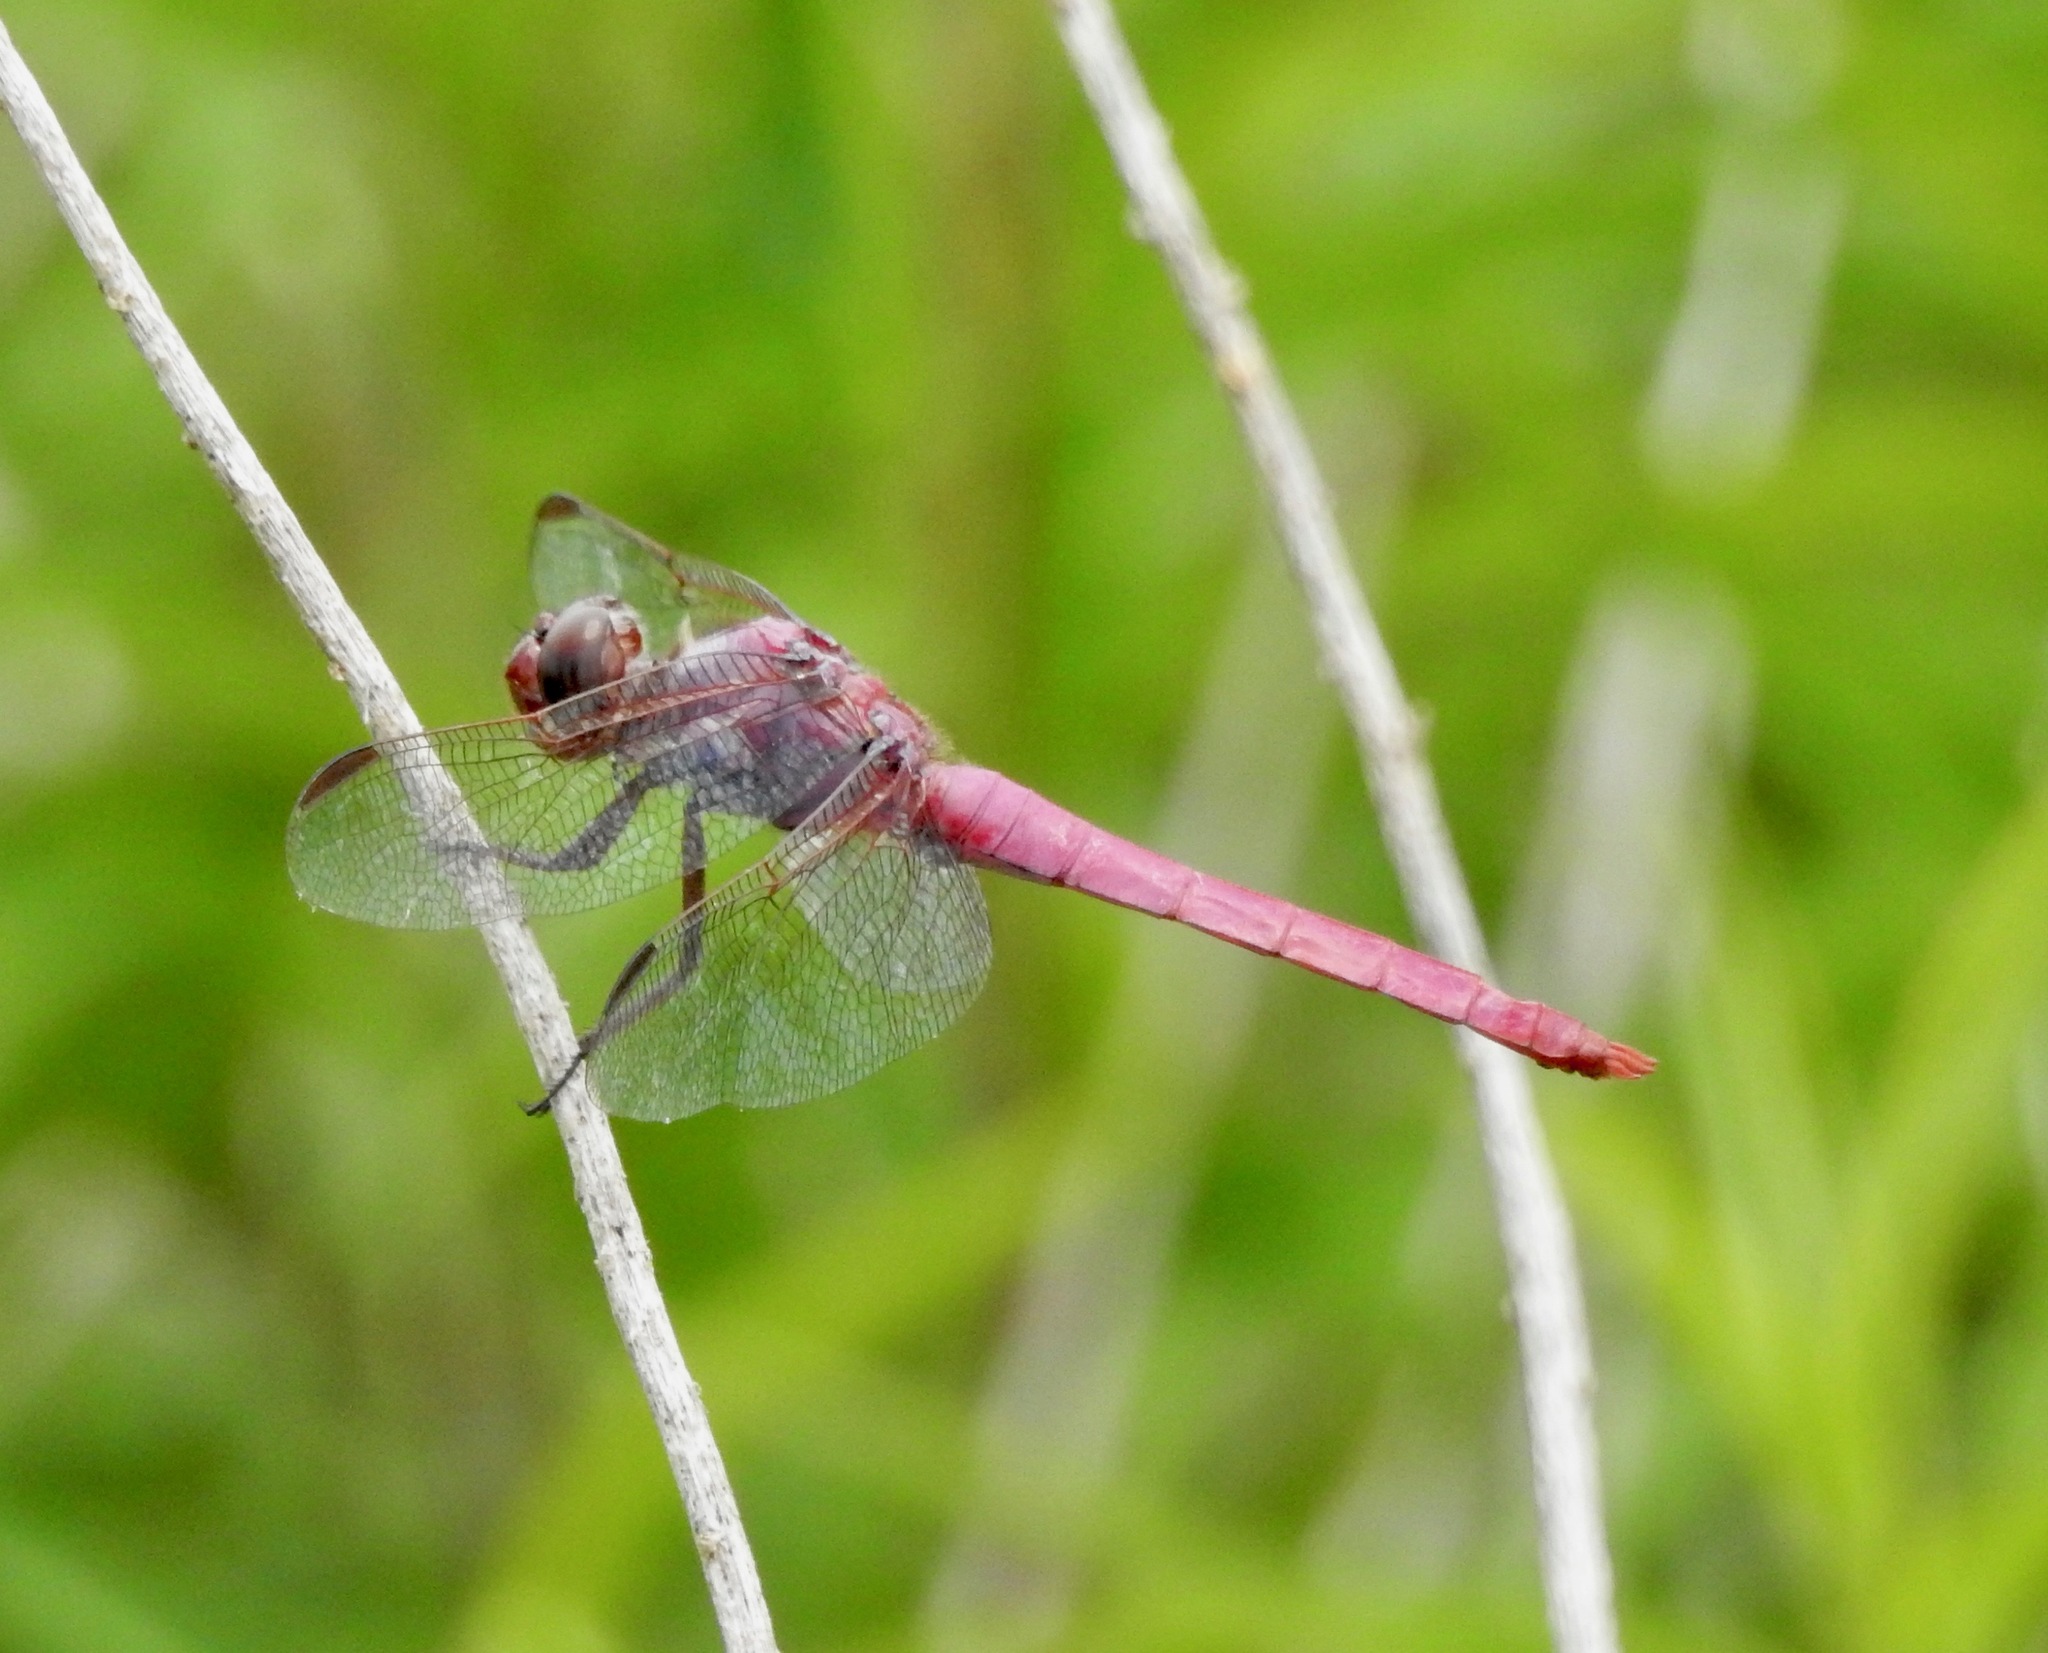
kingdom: Animalia
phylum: Arthropoda
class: Insecta
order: Odonata
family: Libellulidae
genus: Orthemis
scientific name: Orthemis ferruginea
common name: Roseate skimmer
